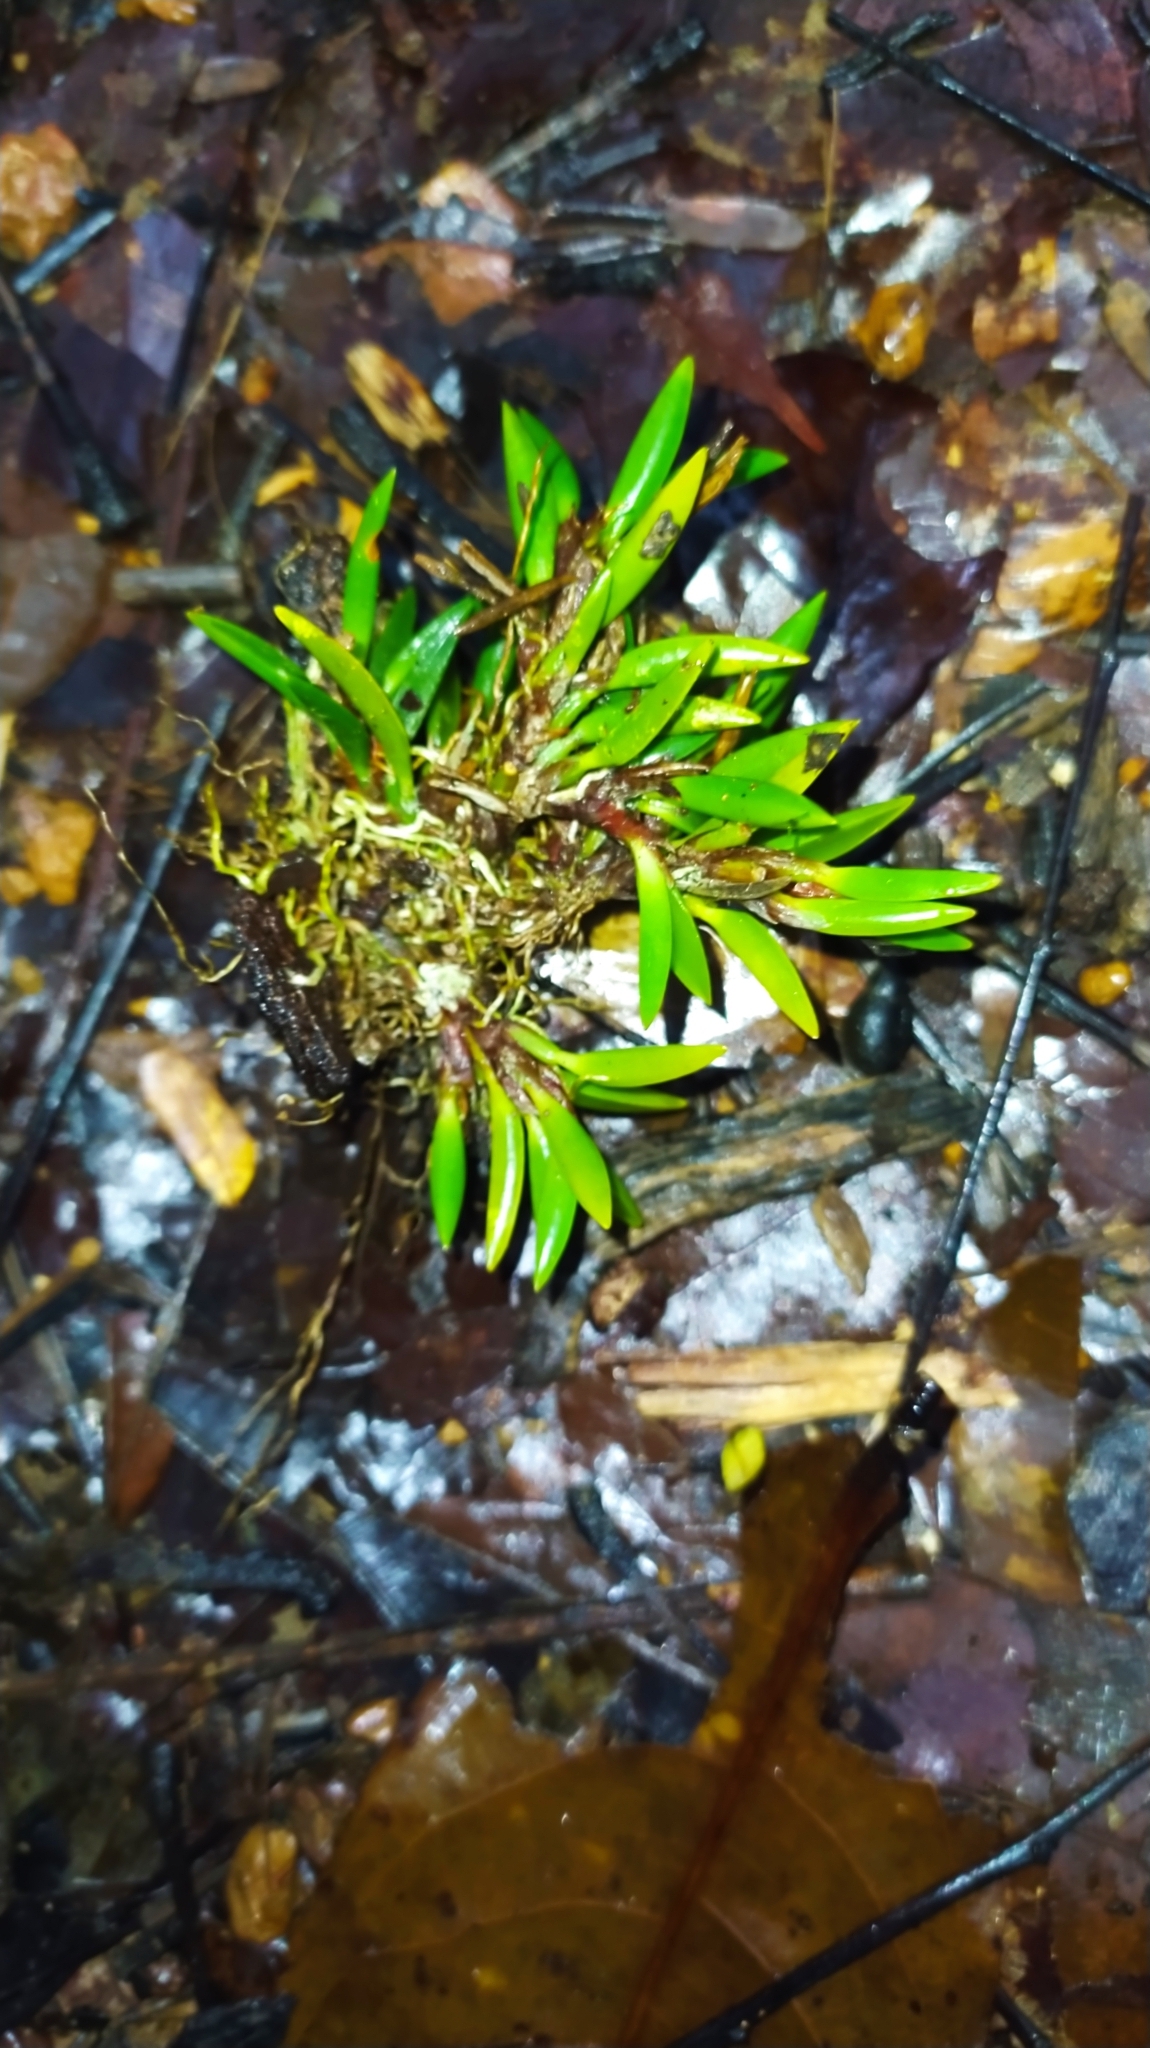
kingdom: Plantae
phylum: Tracheophyta
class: Liliopsida
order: Asparagales
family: Orchidaceae
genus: Maxillaria
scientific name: Maxillaria uncata
